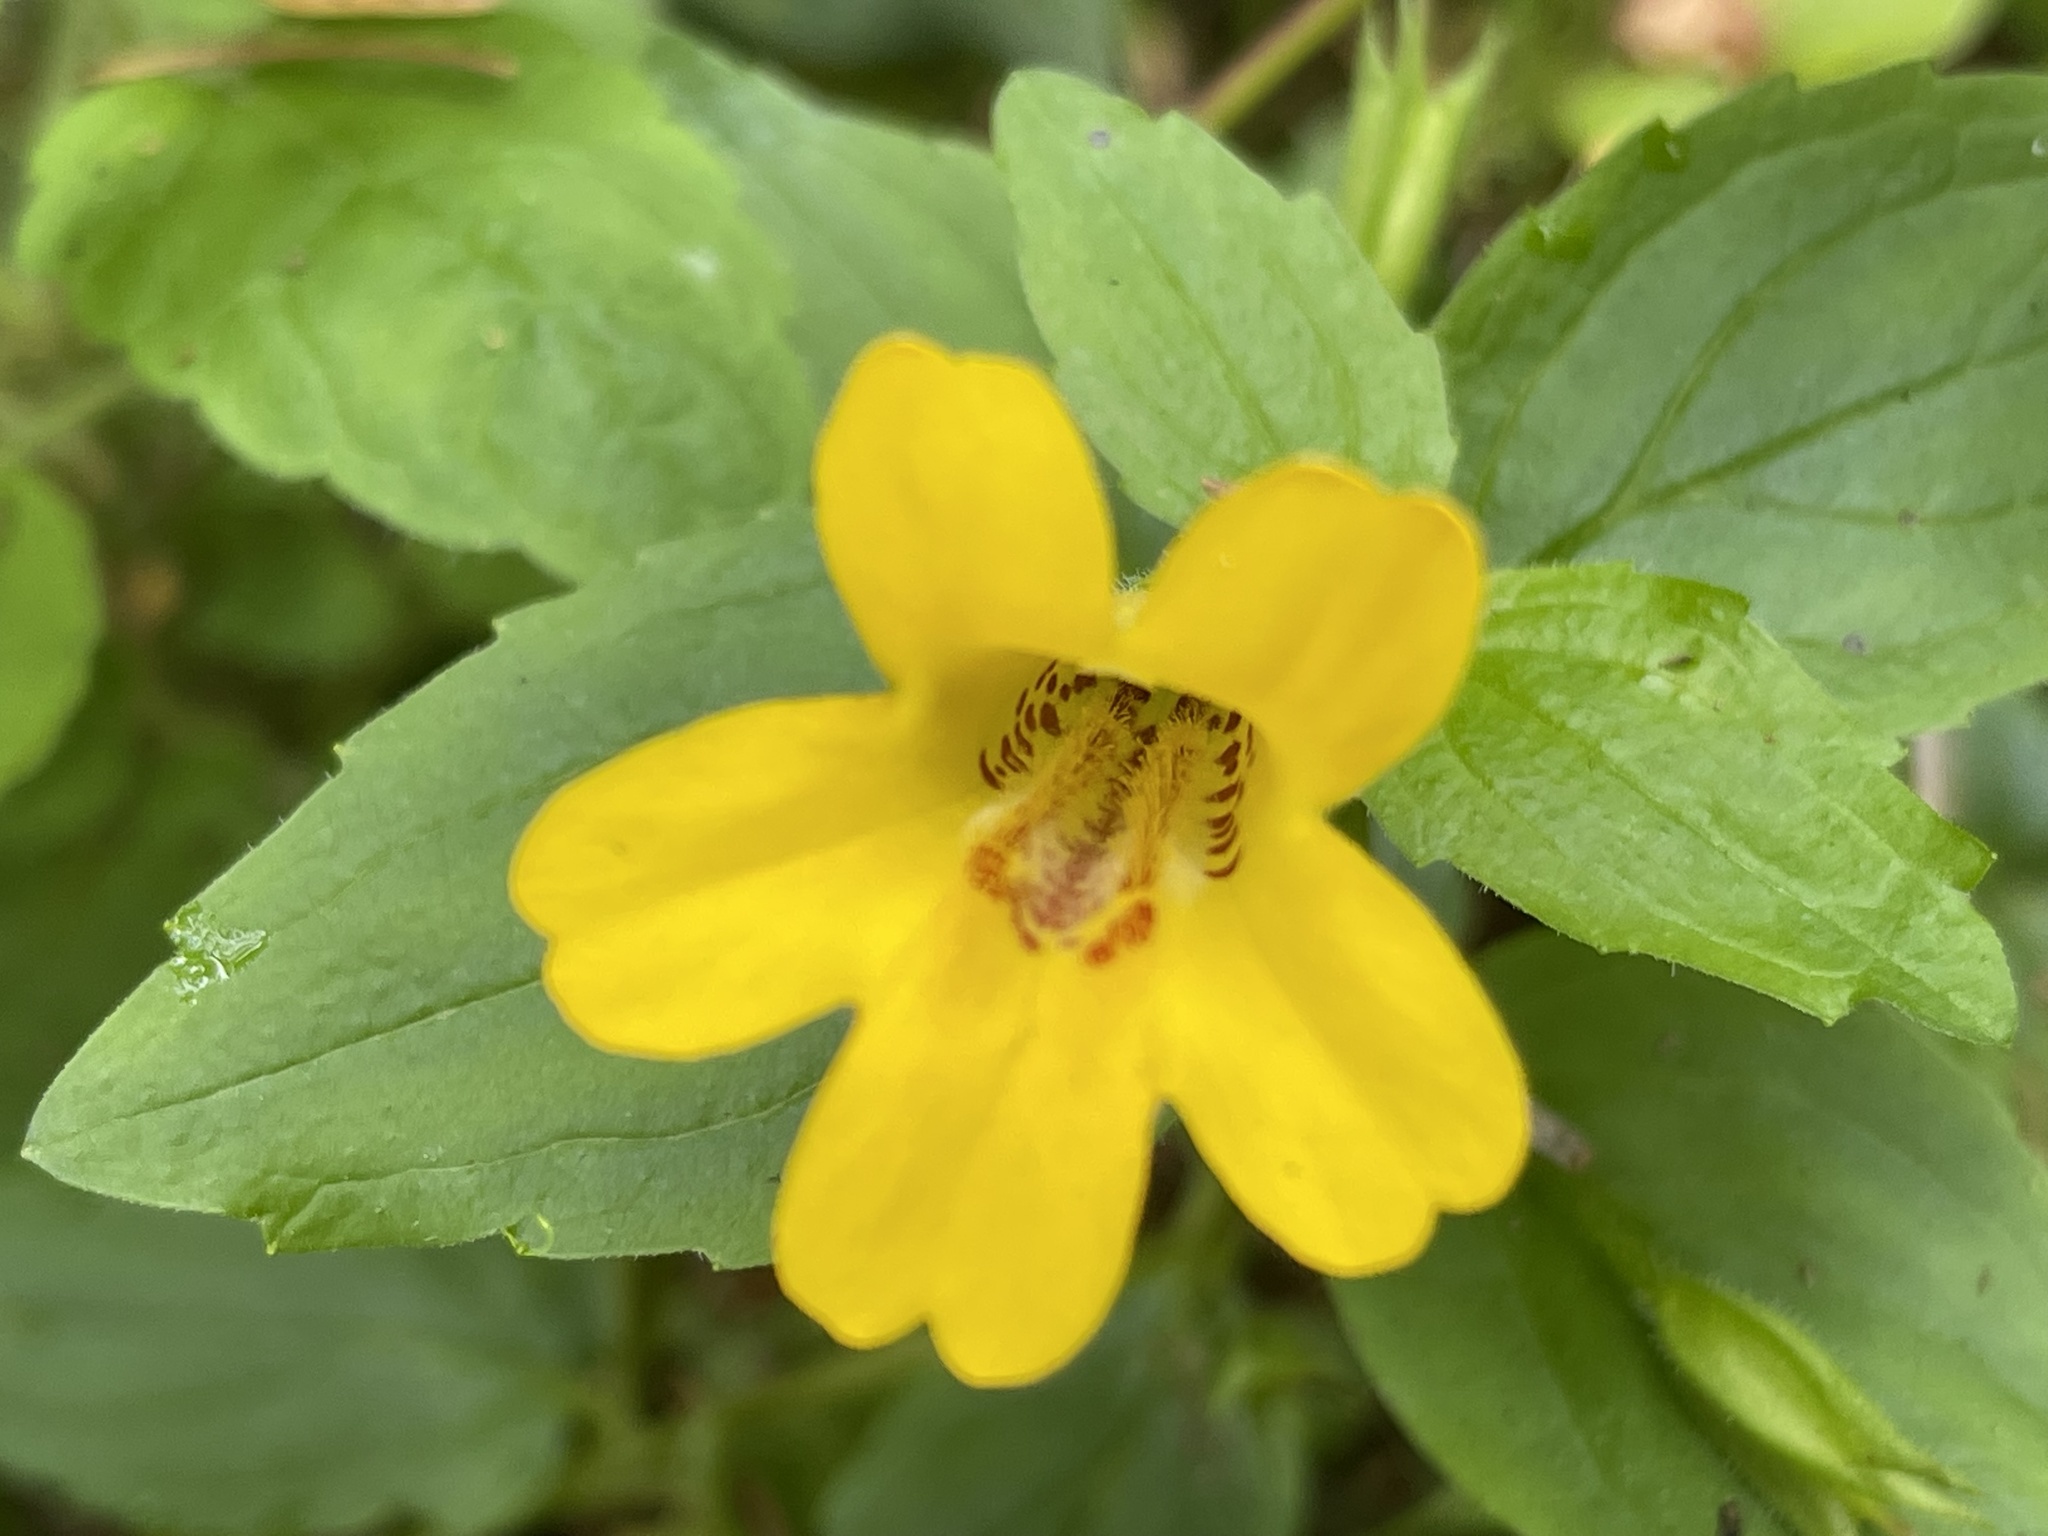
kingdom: Plantae
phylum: Tracheophyta
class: Magnoliopsida
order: Lamiales
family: Phrymaceae
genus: Erythranthe
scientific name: Erythranthe dentata
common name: Coastal monkeyflower
